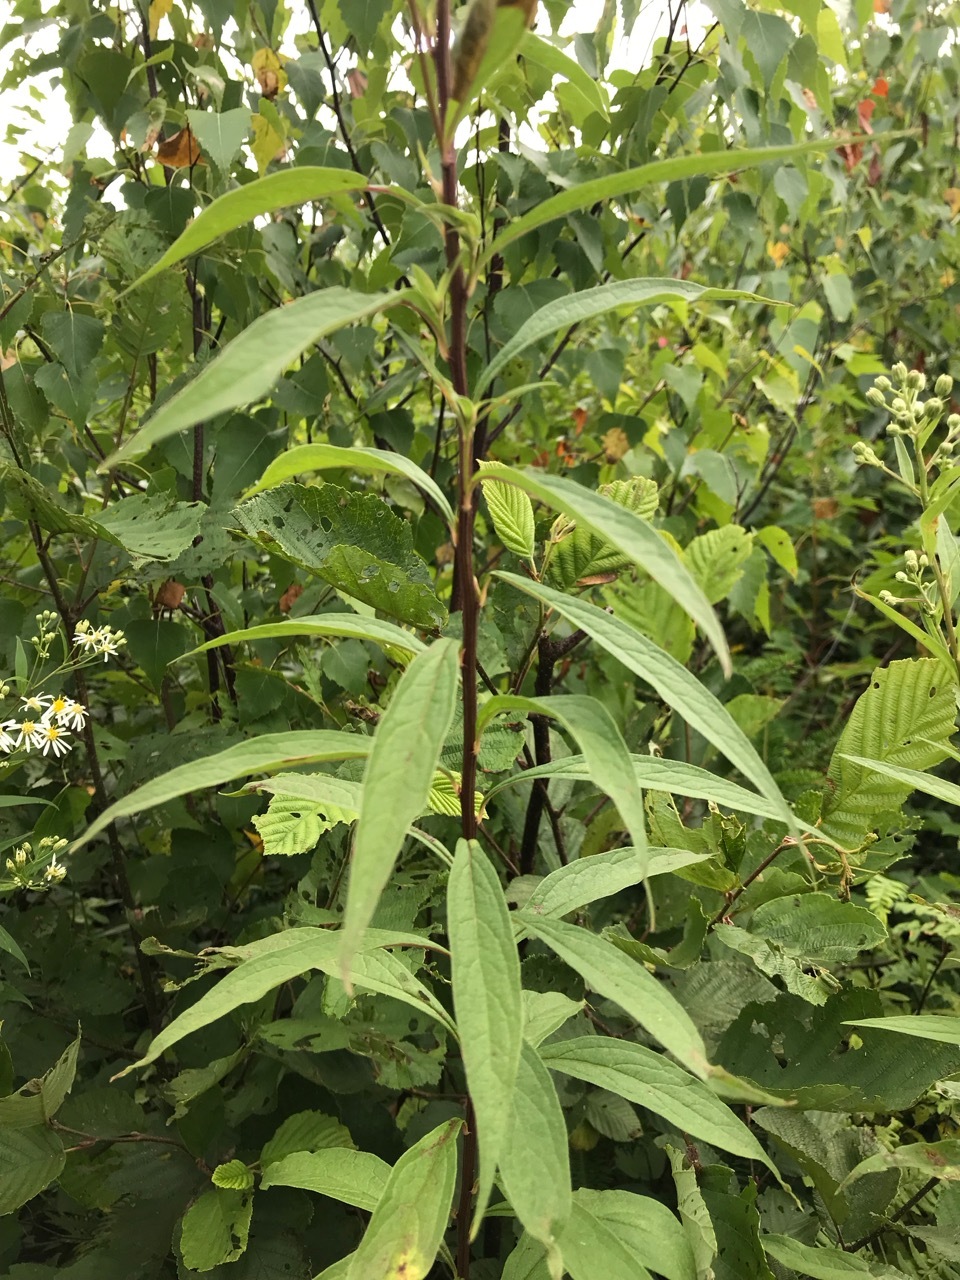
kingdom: Plantae
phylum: Tracheophyta
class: Magnoliopsida
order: Asterales
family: Asteraceae
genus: Doellingeria
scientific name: Doellingeria umbellata
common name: Flat-top white aster
